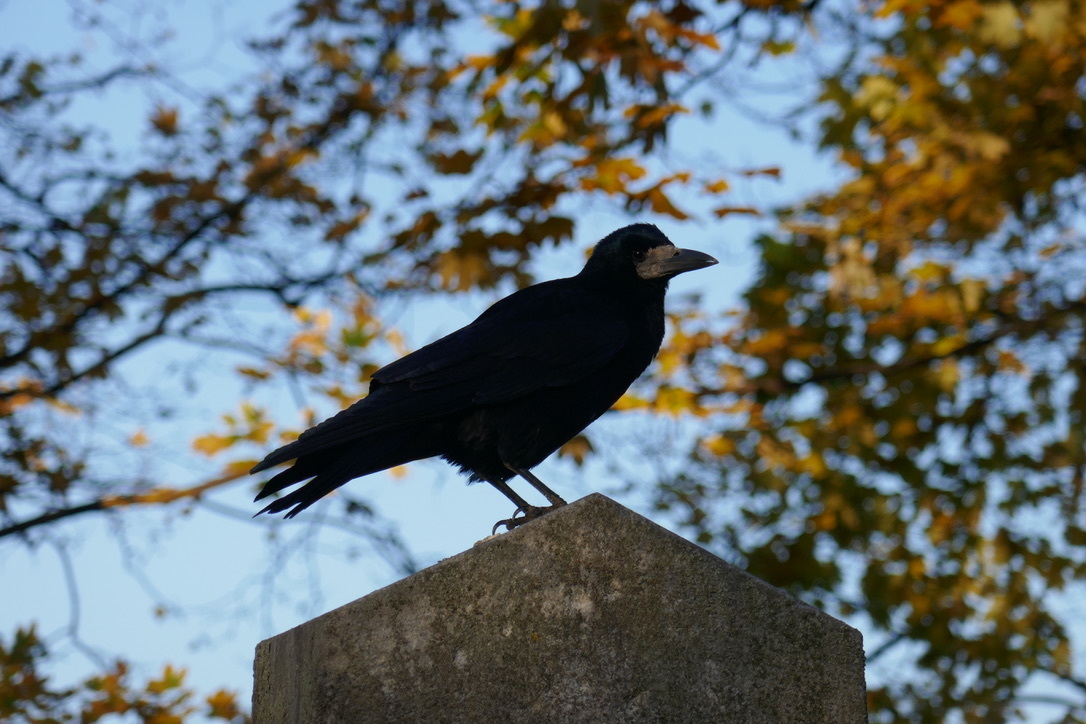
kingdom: Animalia
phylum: Chordata
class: Aves
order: Passeriformes
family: Corvidae
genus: Corvus
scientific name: Corvus frugilegus
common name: Rook
